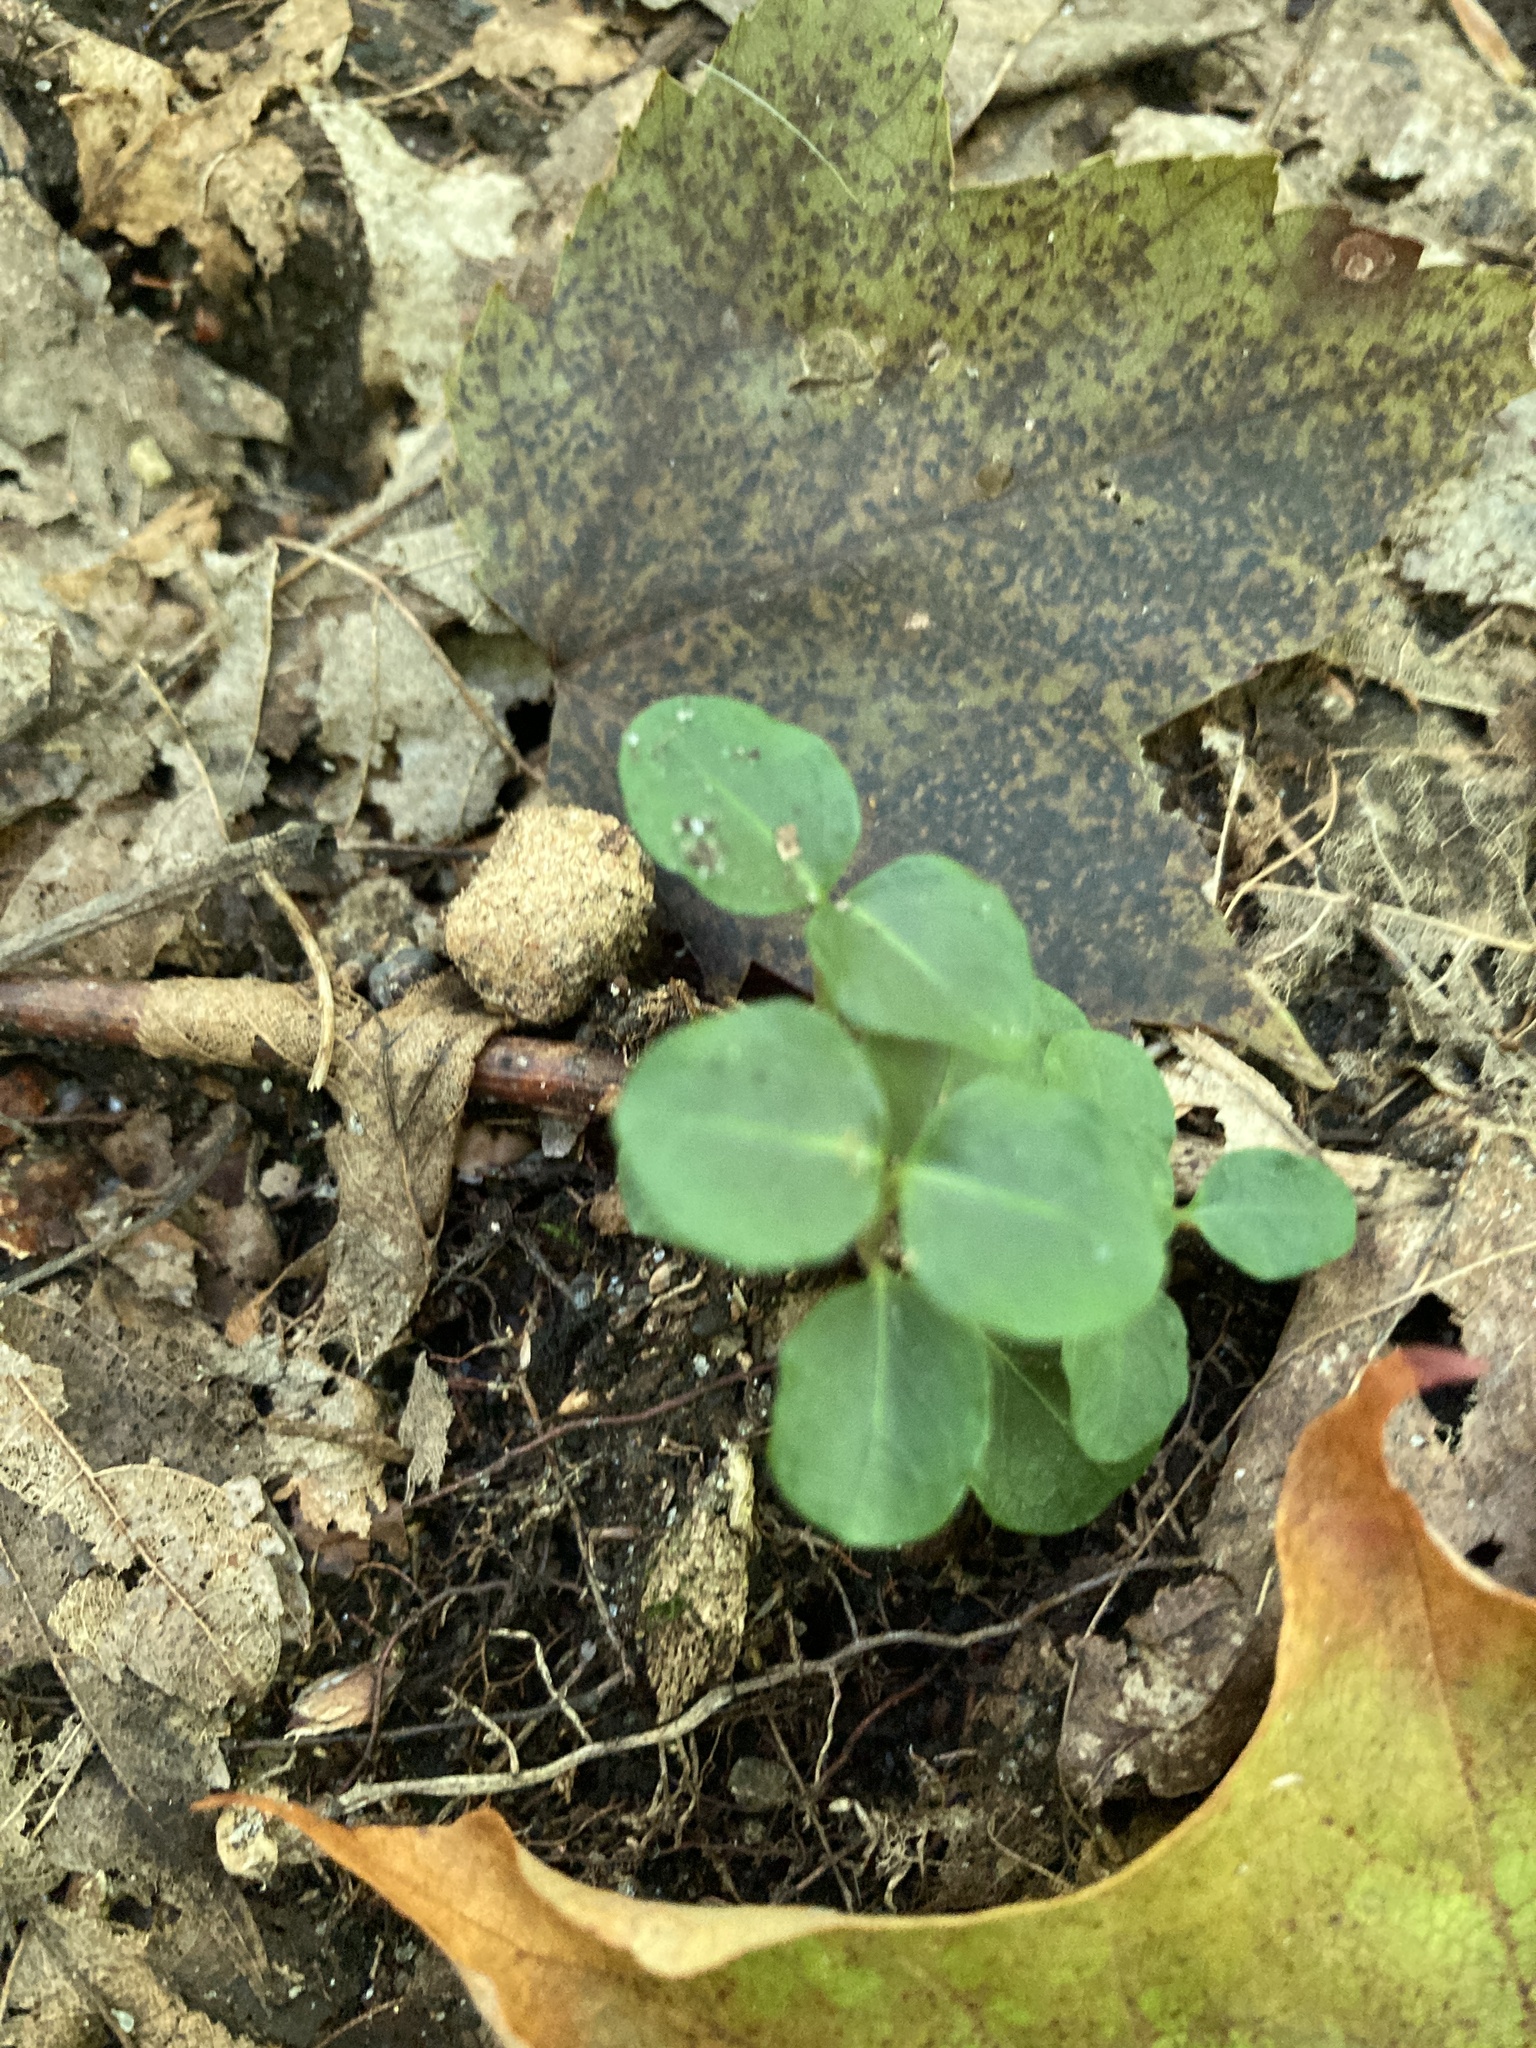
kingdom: Plantae
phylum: Tracheophyta
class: Magnoliopsida
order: Gentianales
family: Rubiaceae
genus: Mitchella
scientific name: Mitchella repens
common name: Partridge-berry
